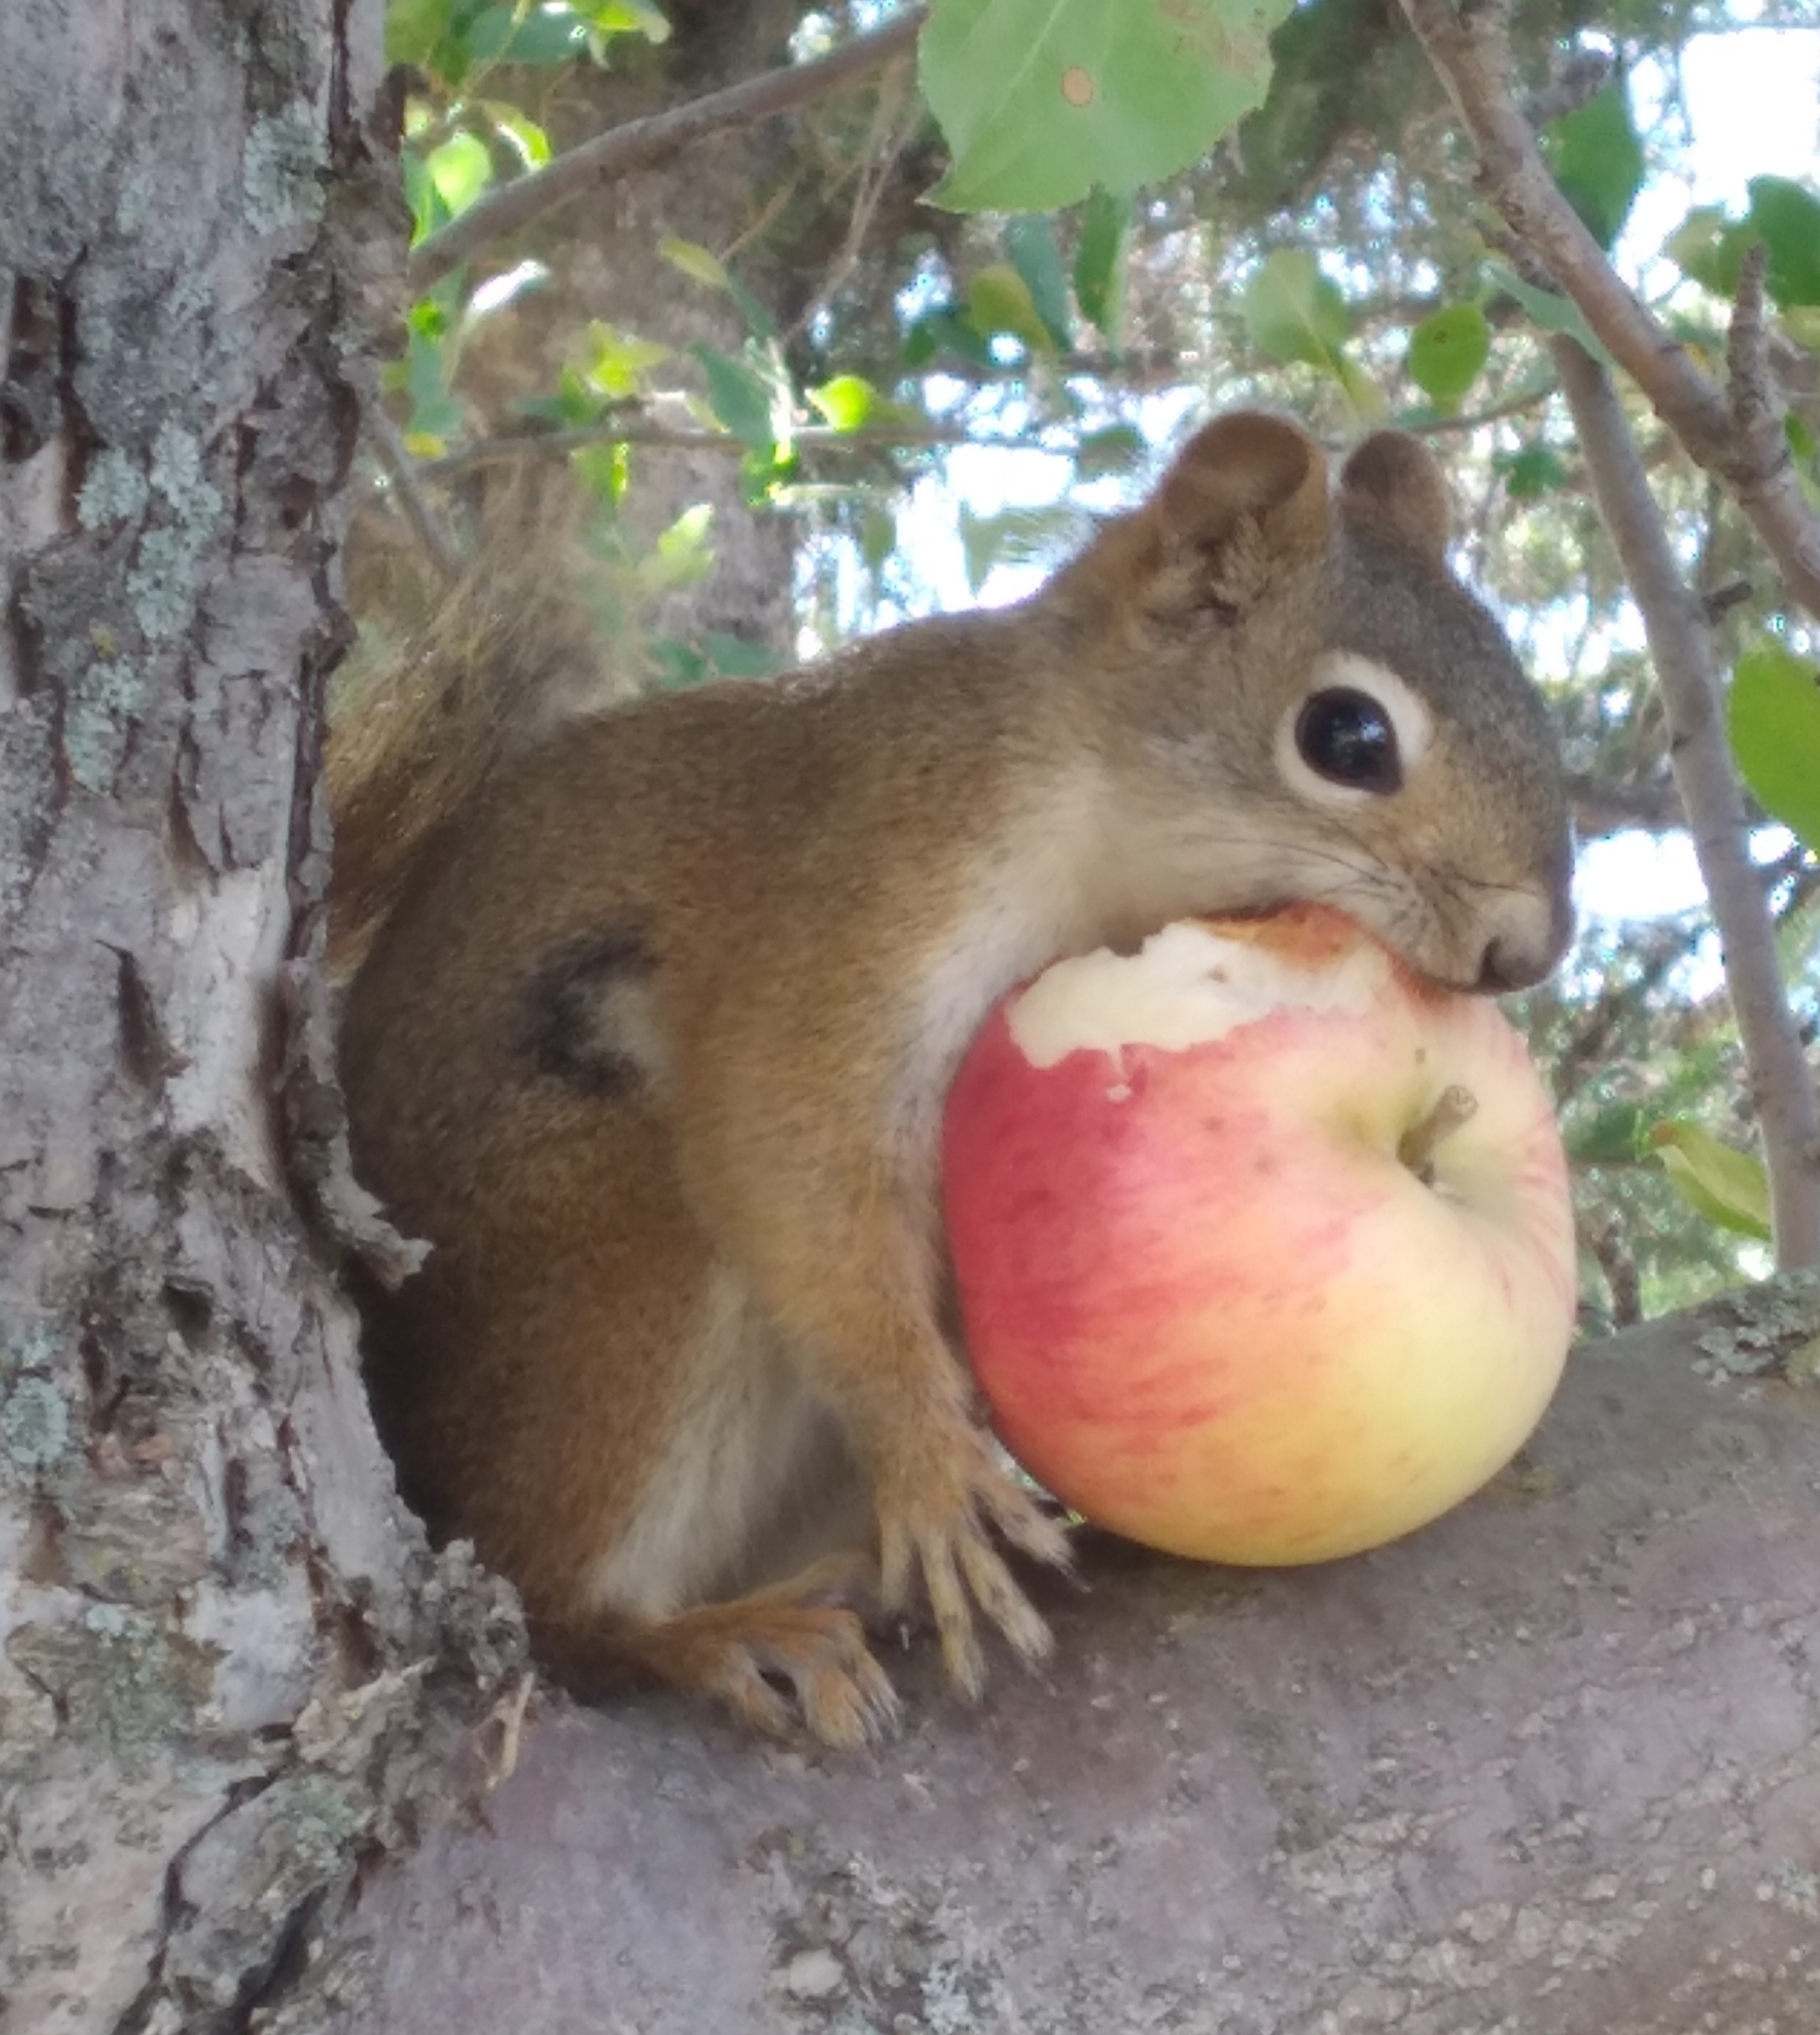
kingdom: Animalia
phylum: Chordata
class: Mammalia
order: Rodentia
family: Sciuridae
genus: Tamiasciurus
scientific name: Tamiasciurus hudsonicus
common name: Red squirrel
